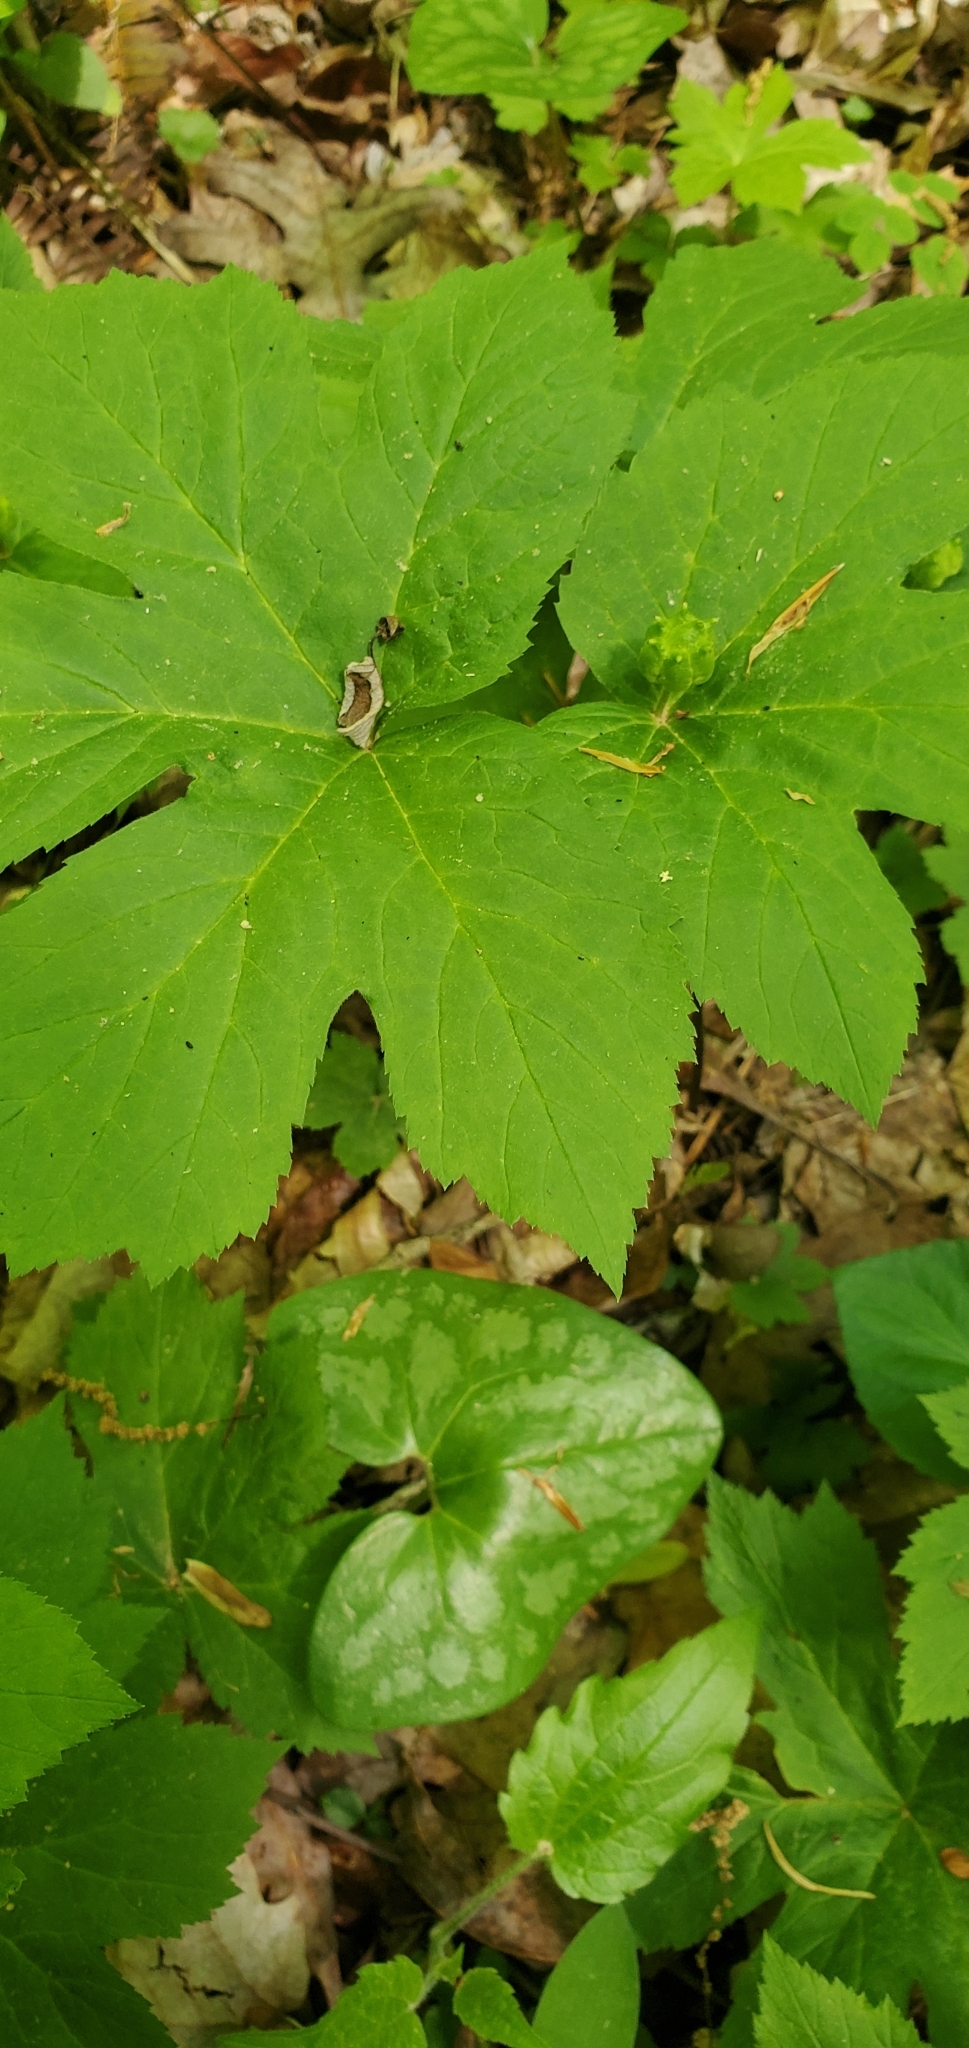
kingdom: Plantae
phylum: Tracheophyta
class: Magnoliopsida
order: Ranunculales
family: Ranunculaceae
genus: Hydrastis
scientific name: Hydrastis canadensis
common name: Goldenseal
